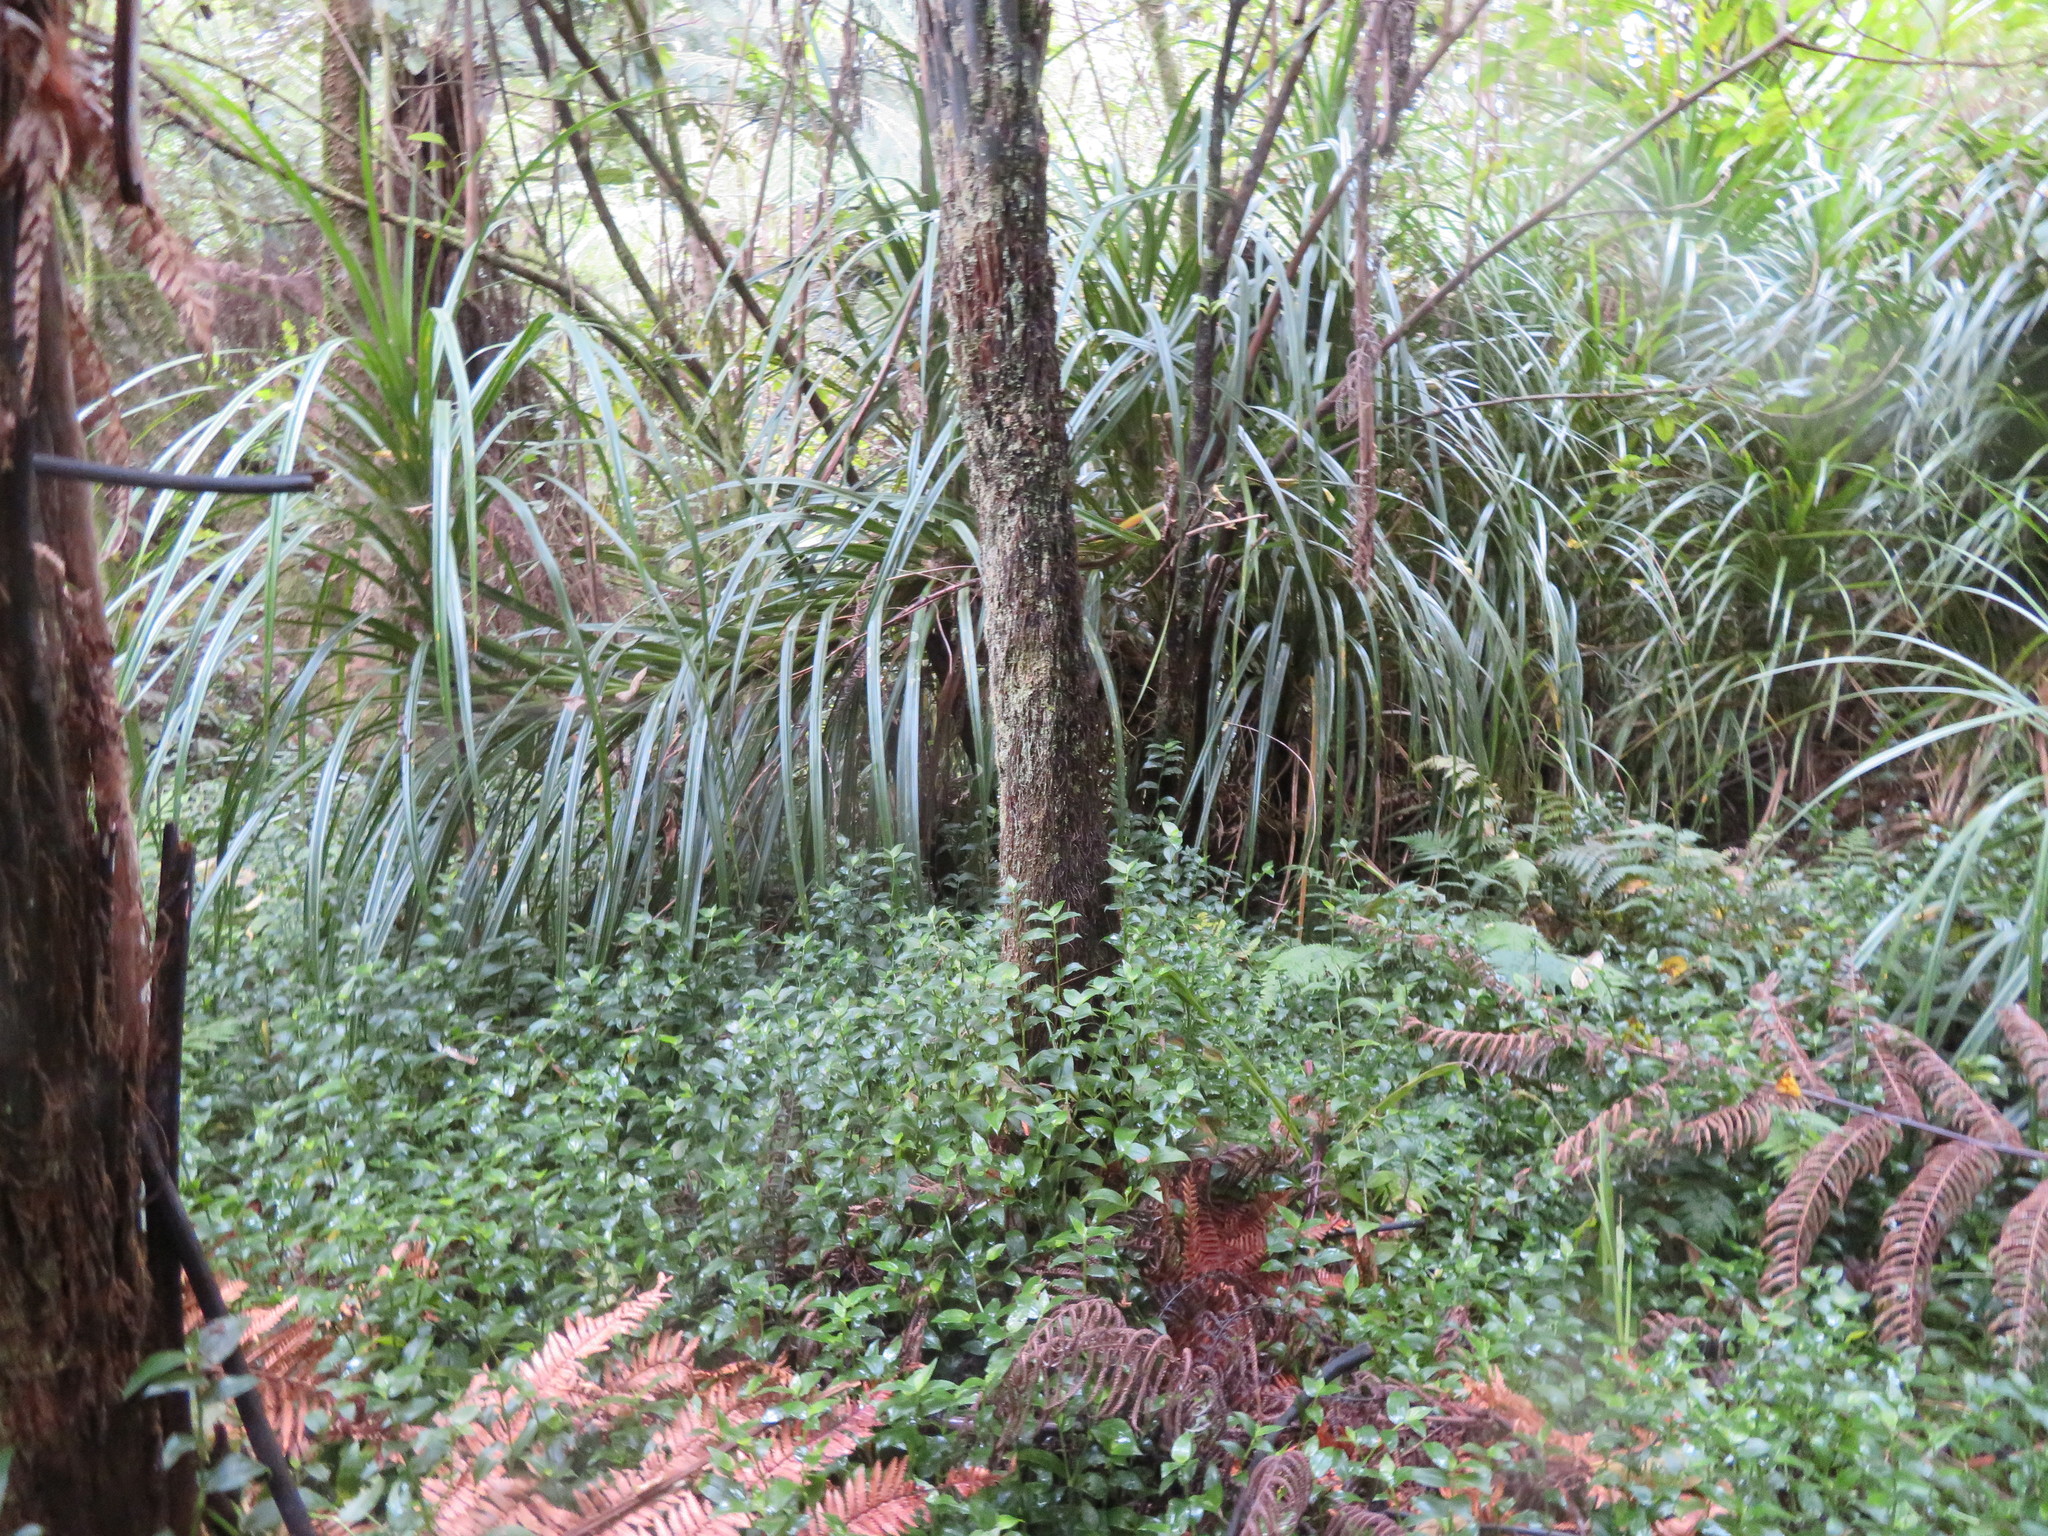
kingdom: Plantae
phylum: Tracheophyta
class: Liliopsida
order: Commelinales
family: Commelinaceae
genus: Tradescantia
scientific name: Tradescantia fluminensis
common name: Wandering-jew
